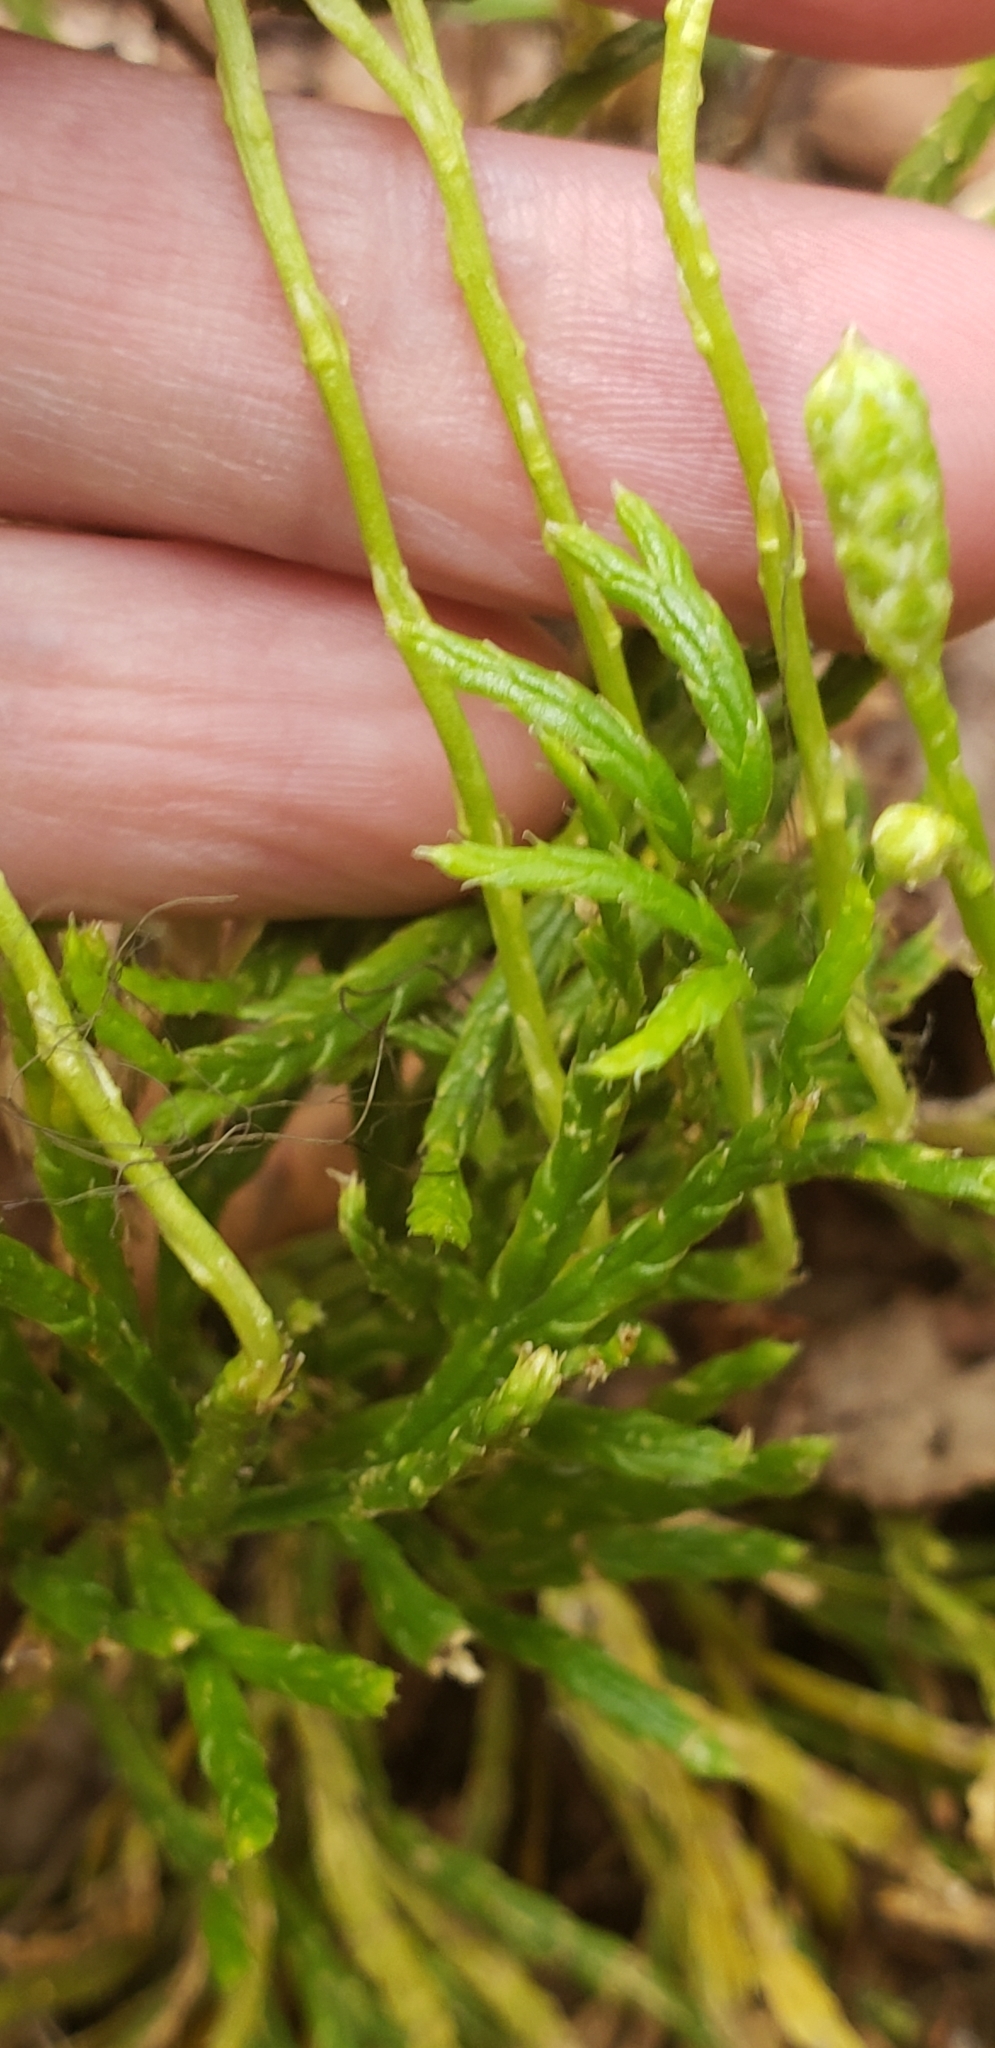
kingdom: Plantae
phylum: Tracheophyta
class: Lycopodiopsida
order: Lycopodiales
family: Lycopodiaceae
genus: Diphasiastrum
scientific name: Diphasiastrum complanatum
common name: Northern running-pine
